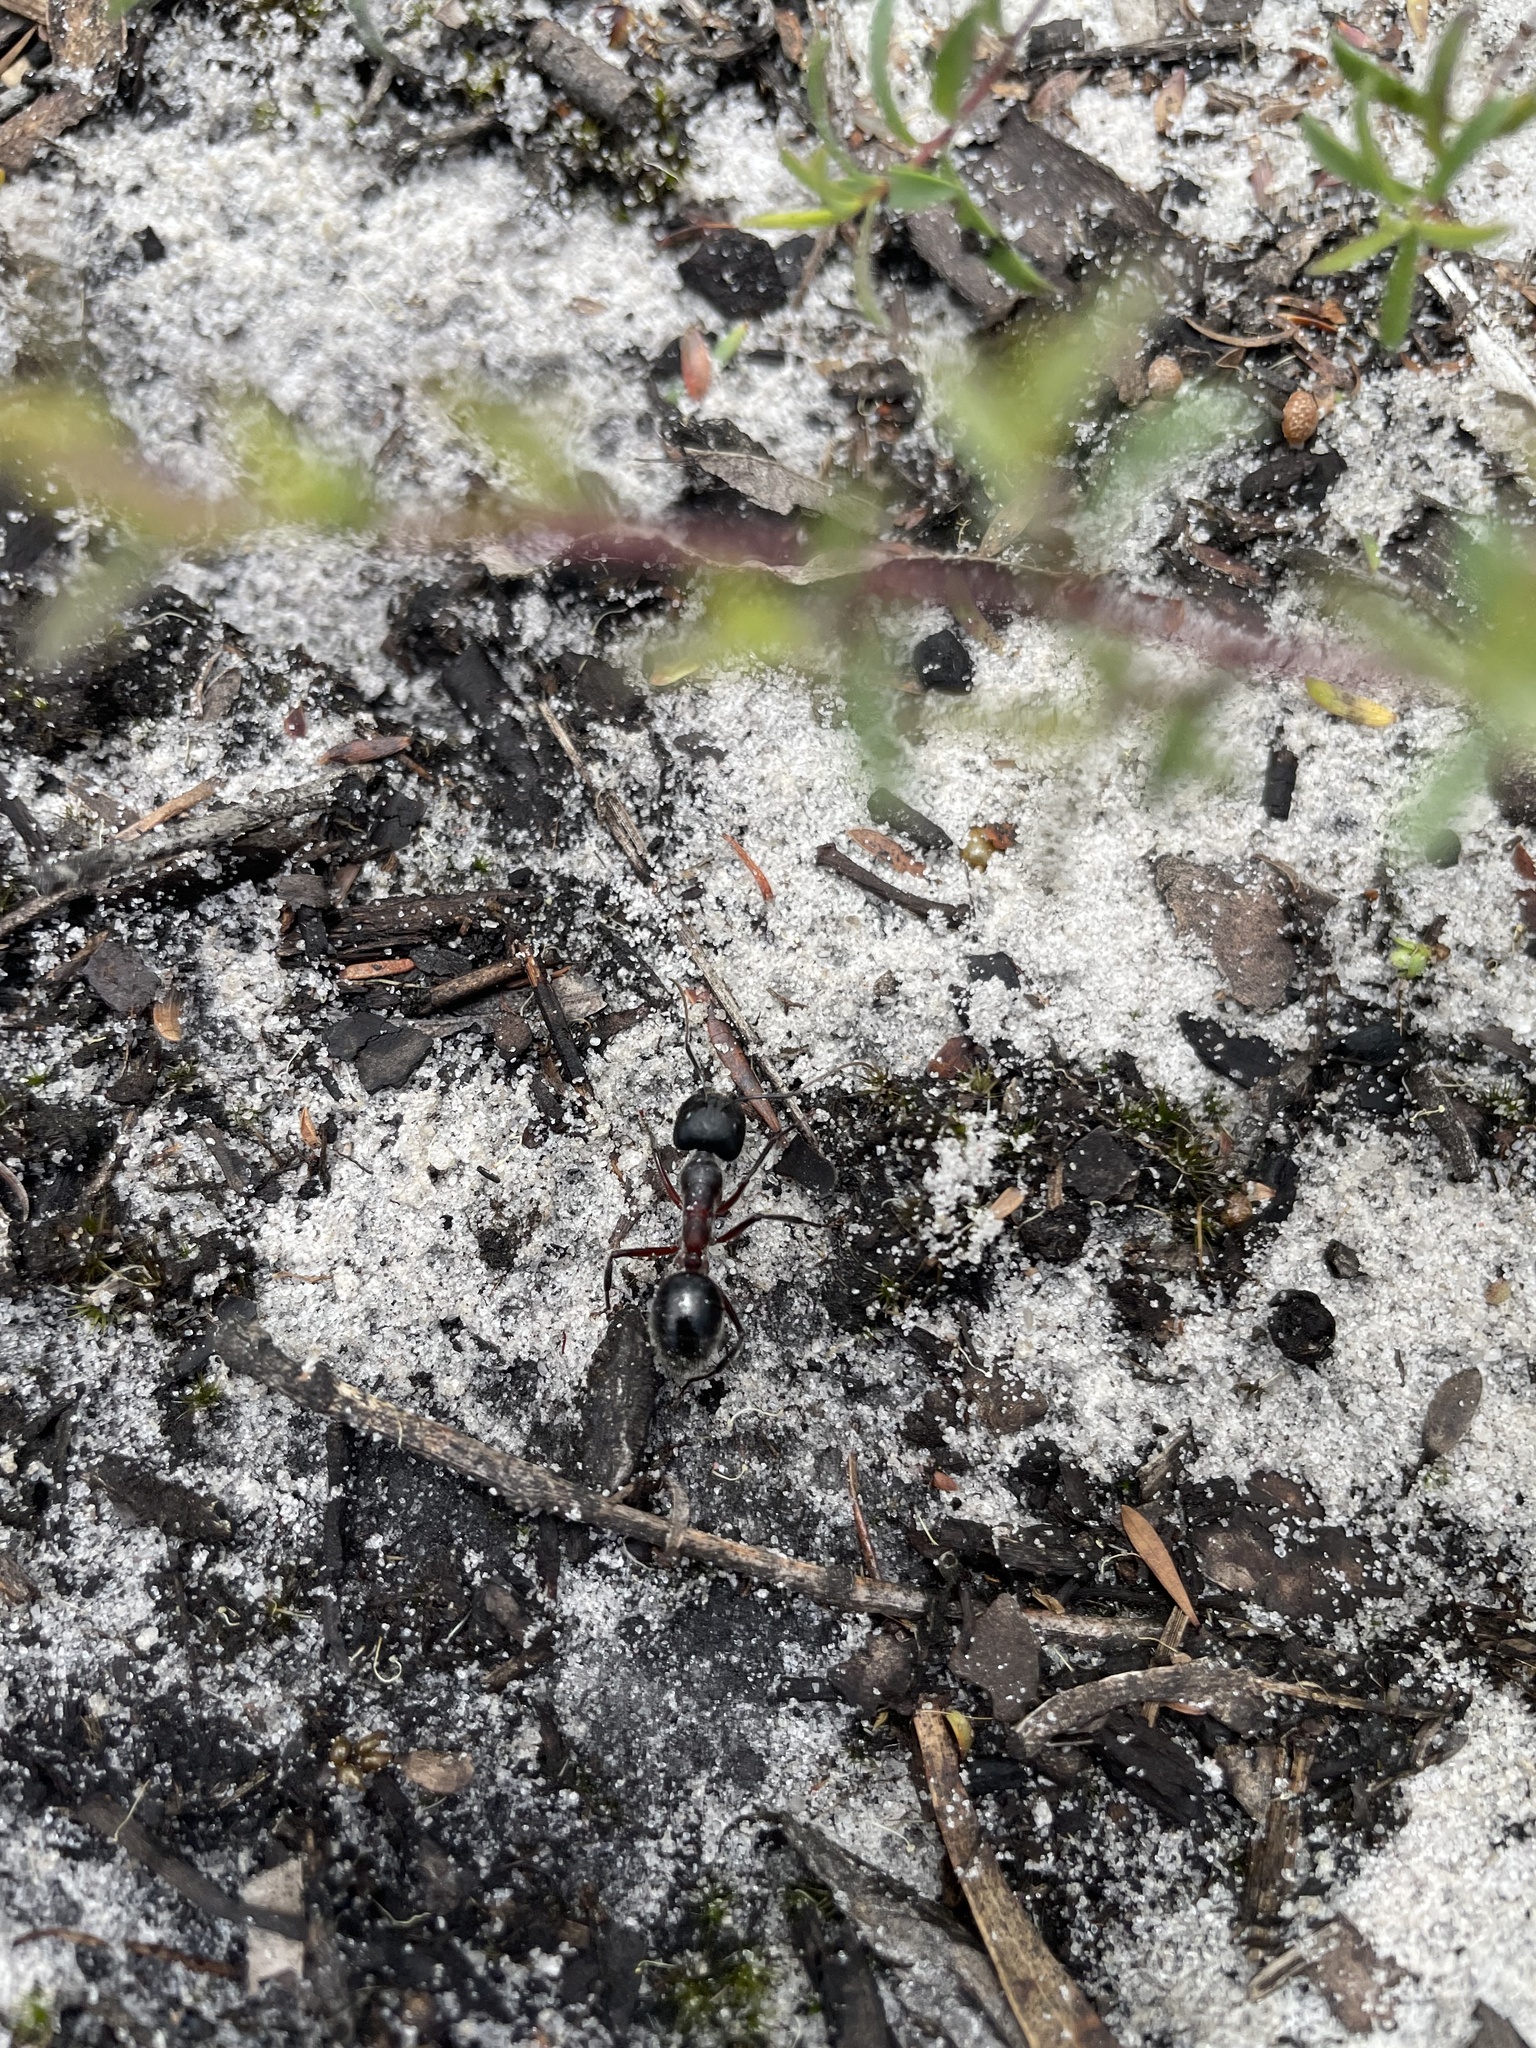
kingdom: Animalia
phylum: Arthropoda
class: Insecta
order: Hymenoptera
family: Formicidae
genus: Camponotus
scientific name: Camponotus intrepidus
